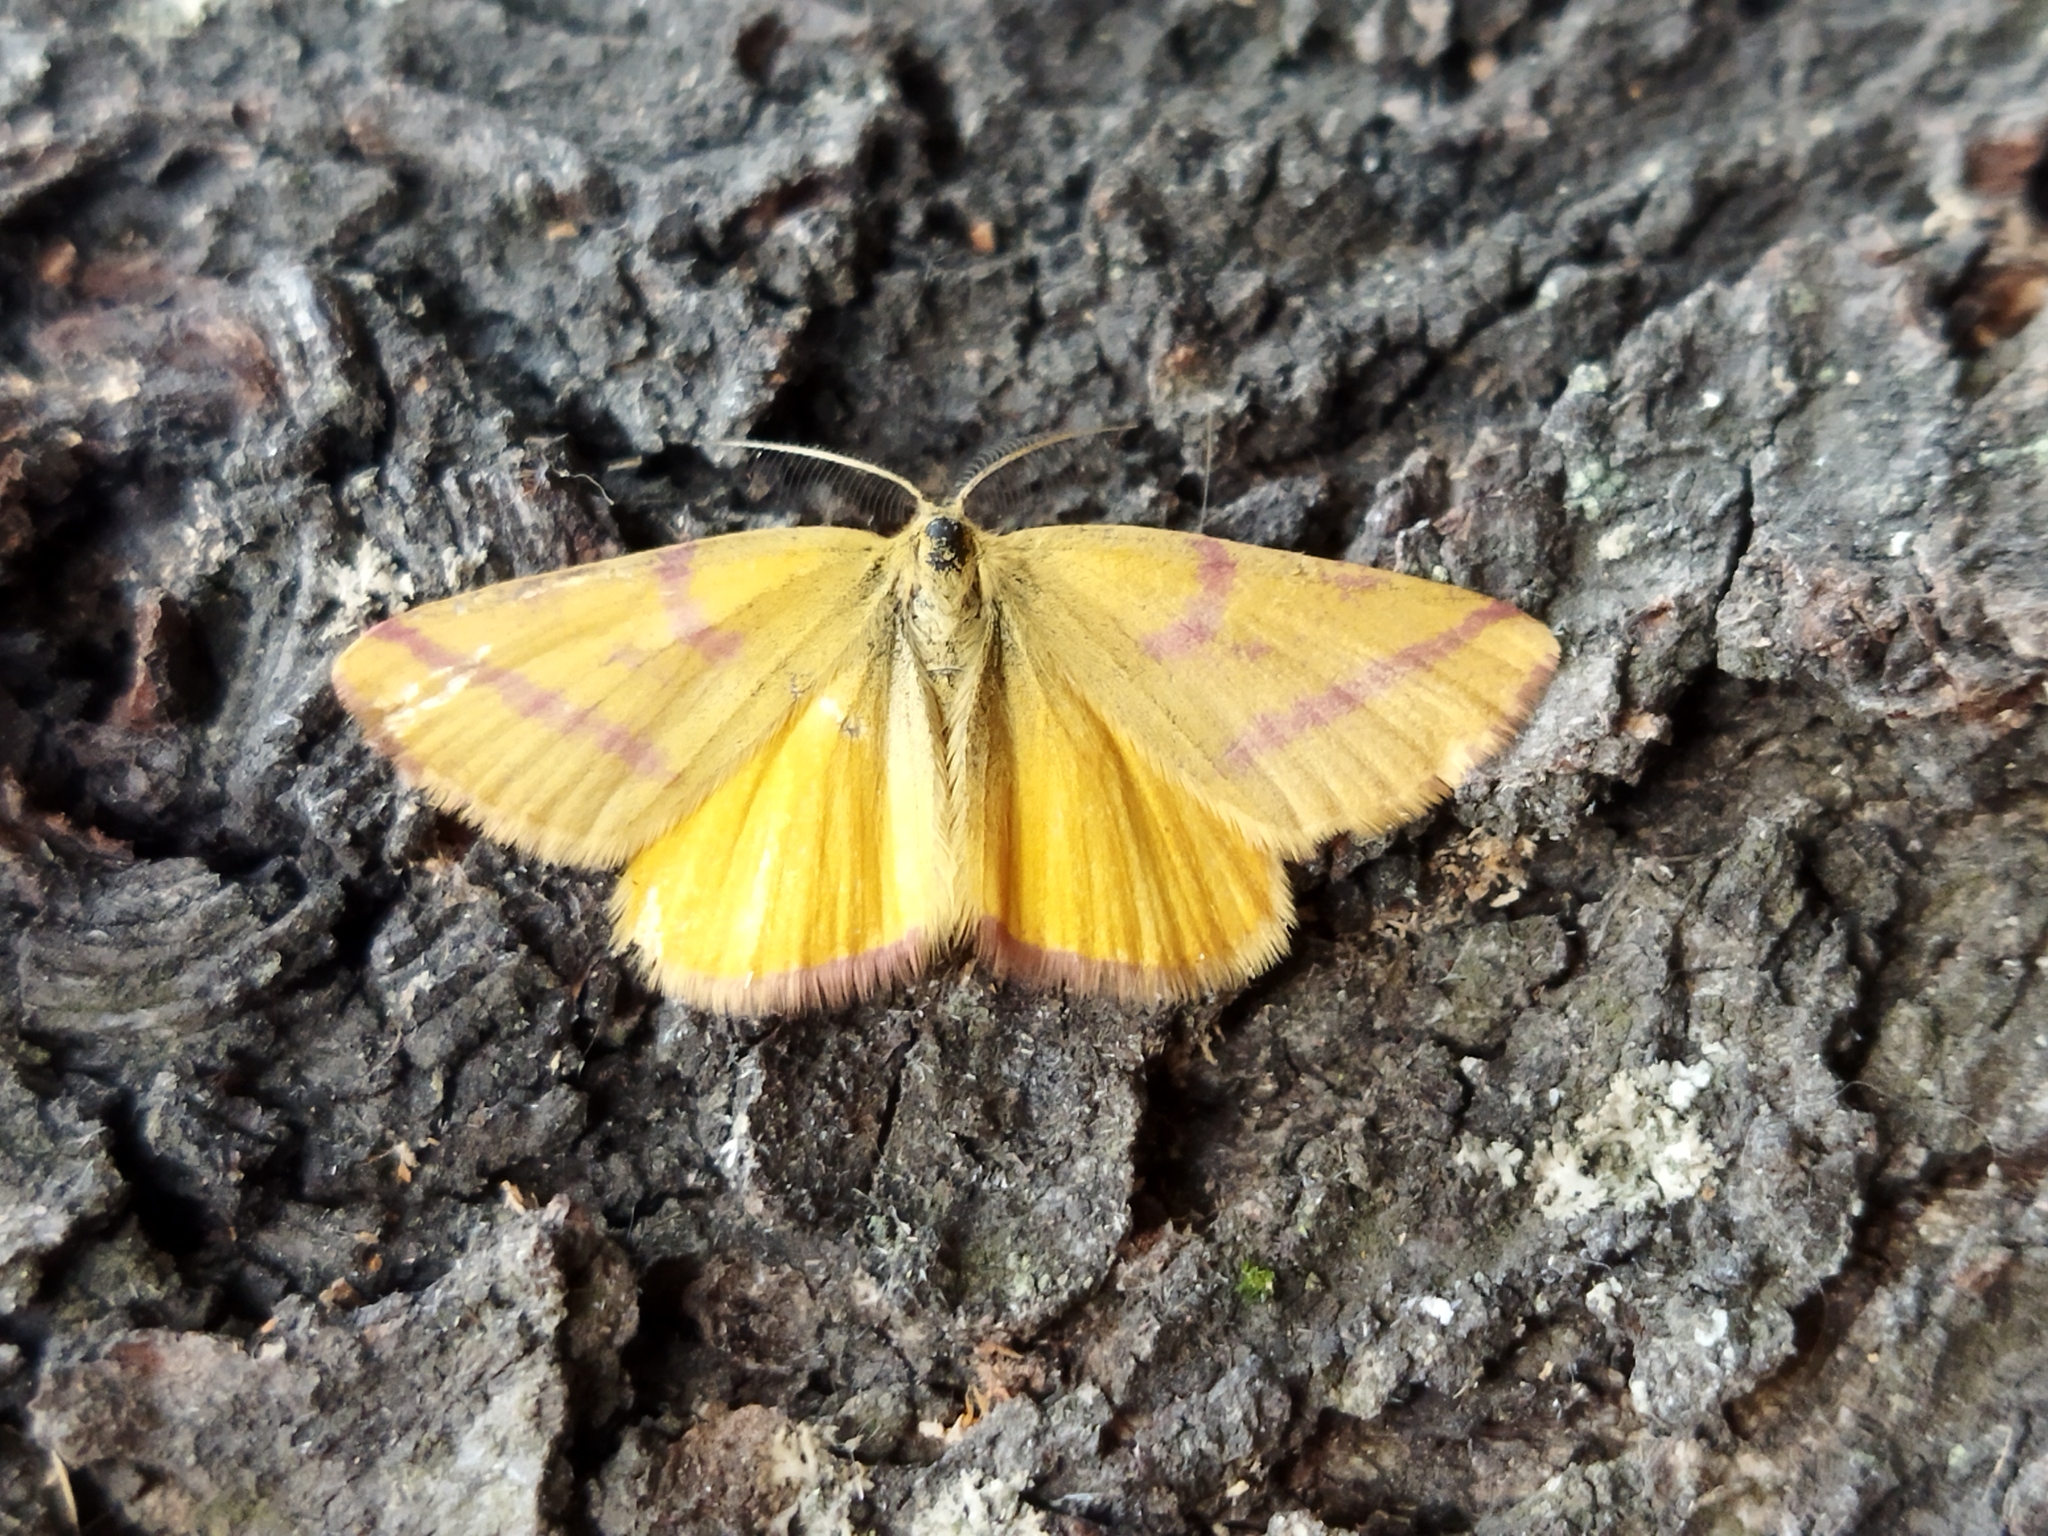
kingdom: Animalia
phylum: Arthropoda
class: Insecta
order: Lepidoptera
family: Geometridae
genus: Lythria
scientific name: Lythria purpuraria
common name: Purple-barred yellow
